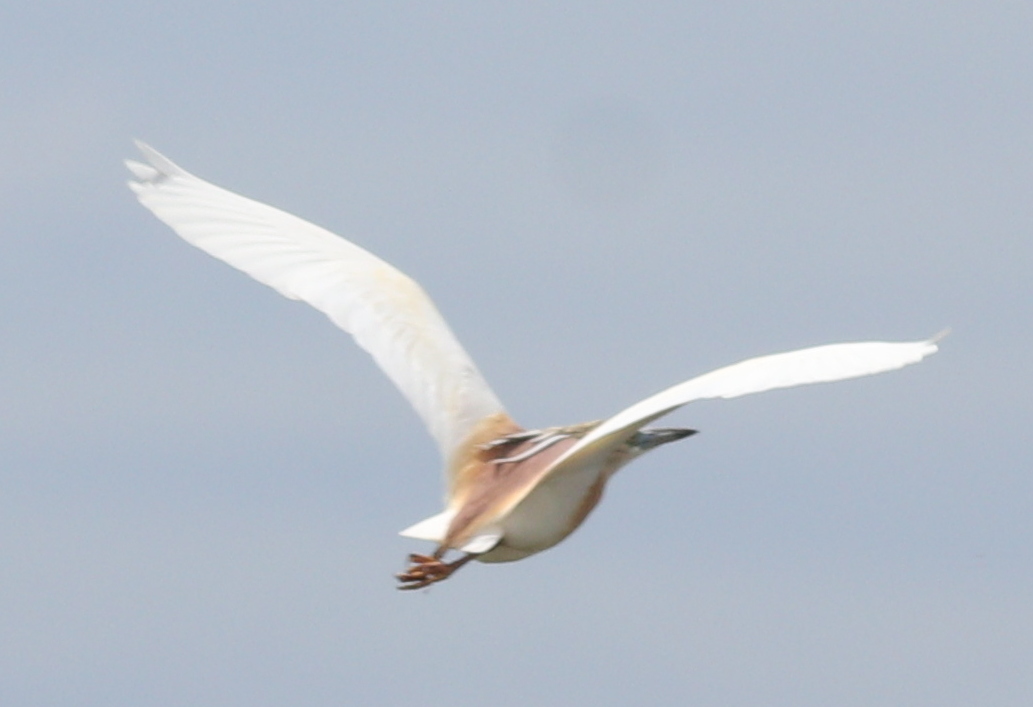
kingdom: Animalia
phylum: Chordata
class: Aves
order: Pelecaniformes
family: Ardeidae
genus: Ardeola
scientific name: Ardeola ralloides
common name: Squacco heron
